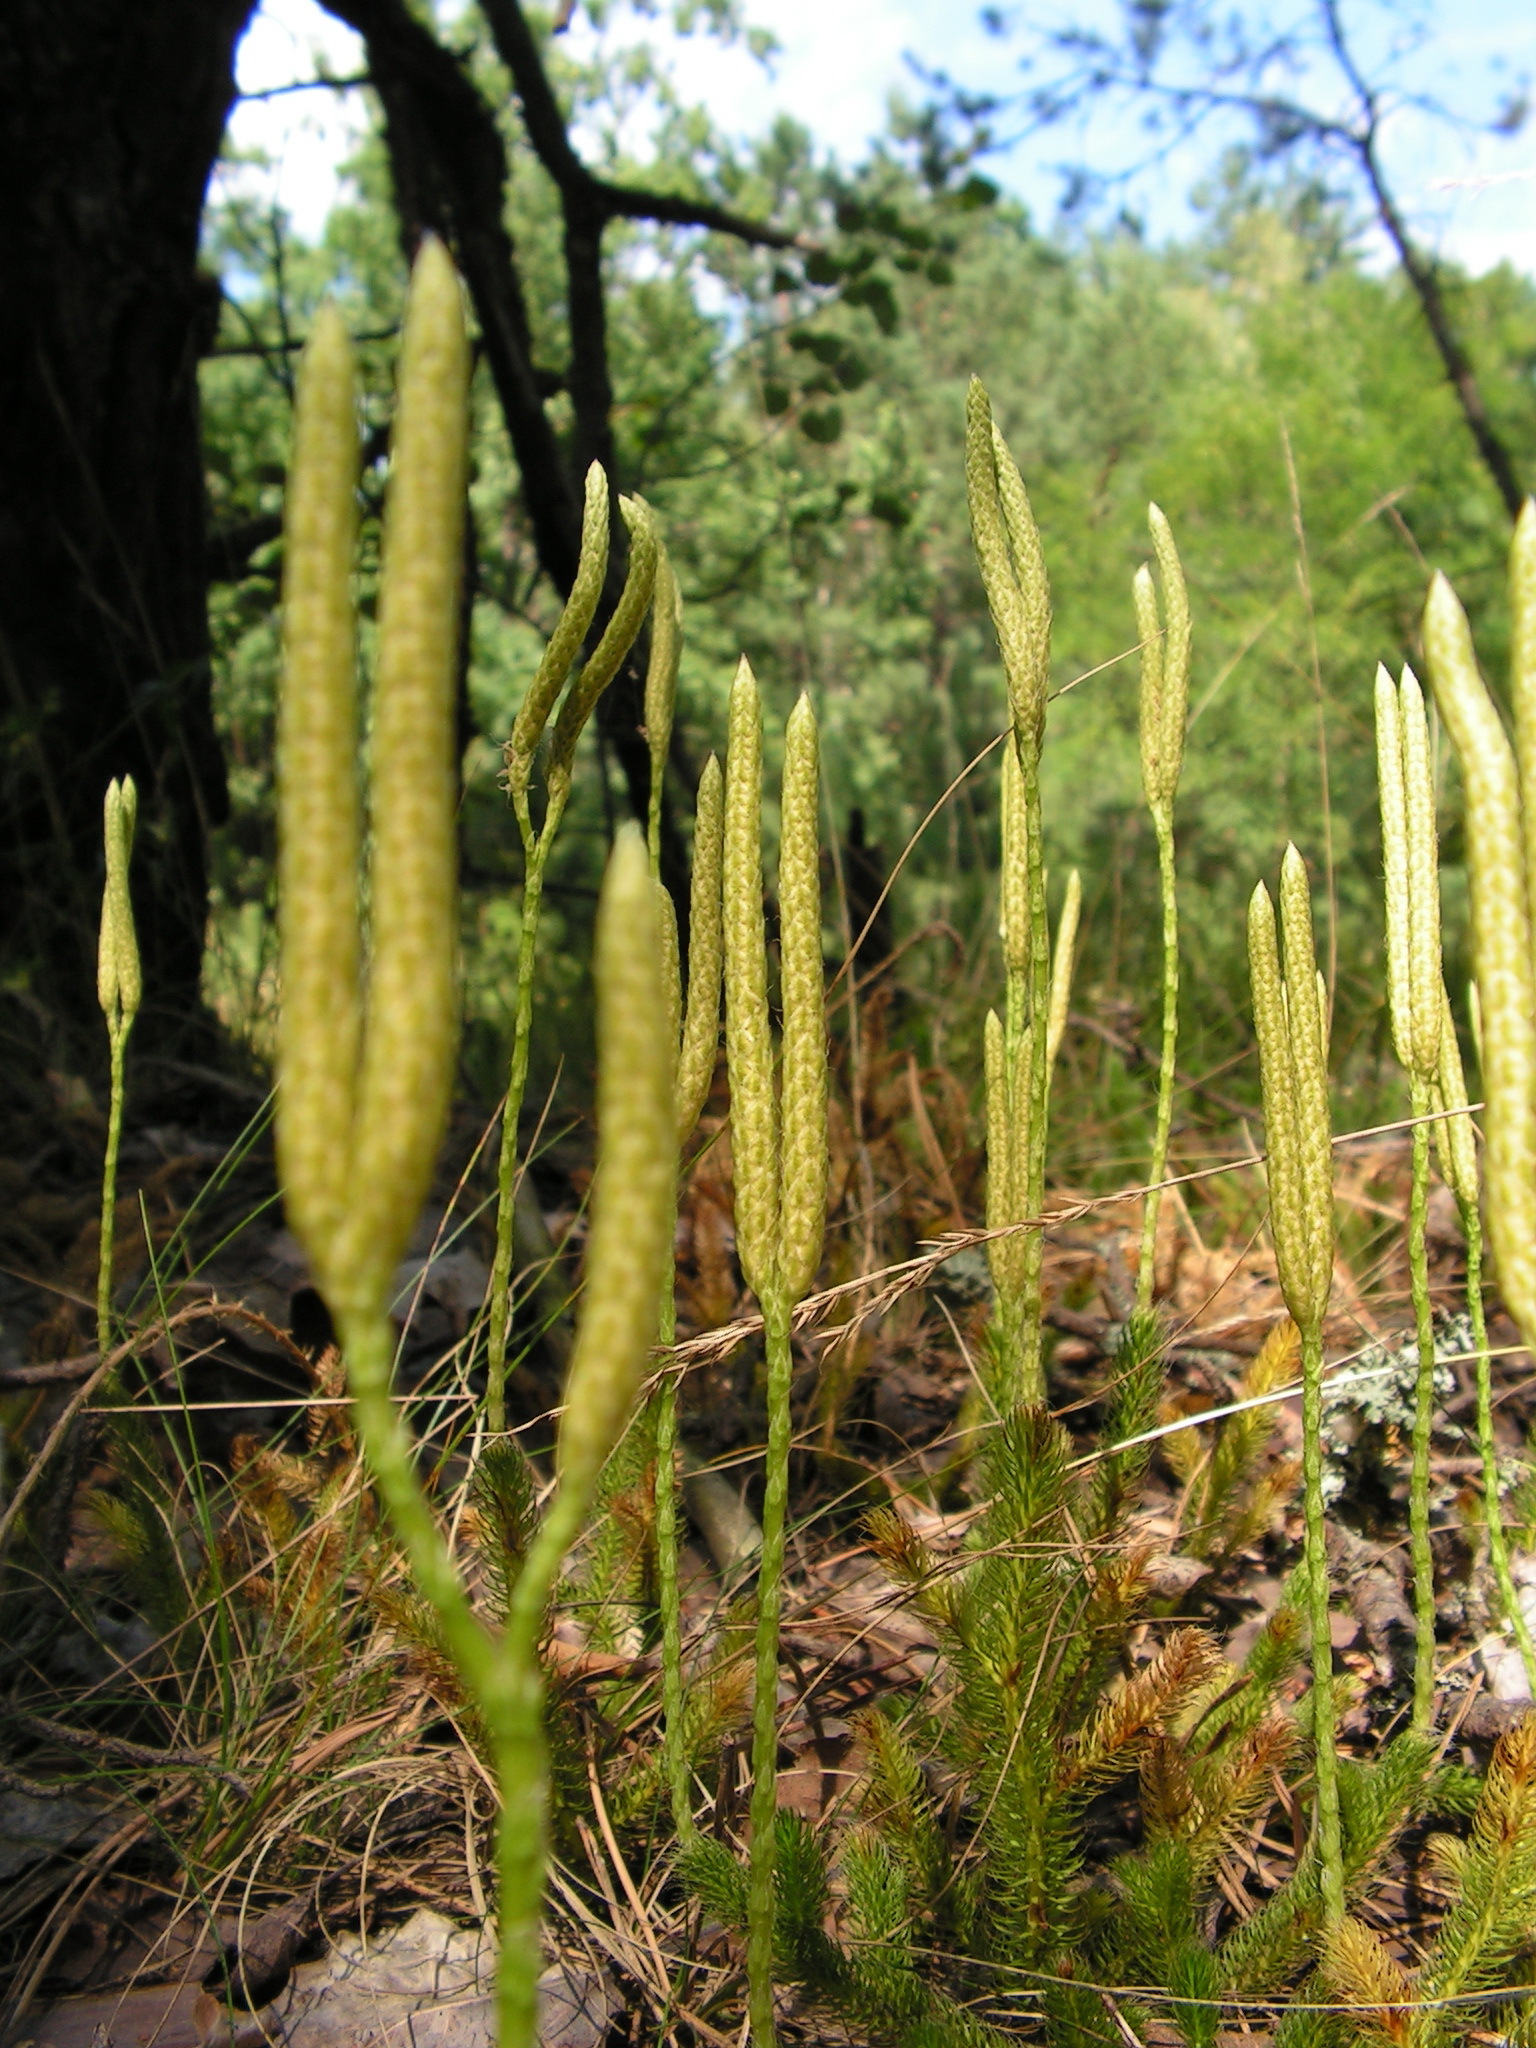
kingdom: Plantae
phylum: Tracheophyta
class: Lycopodiopsida
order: Lycopodiales
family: Lycopodiaceae
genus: Lycopodium
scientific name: Lycopodium clavatum
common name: Stag's-horn clubmoss
